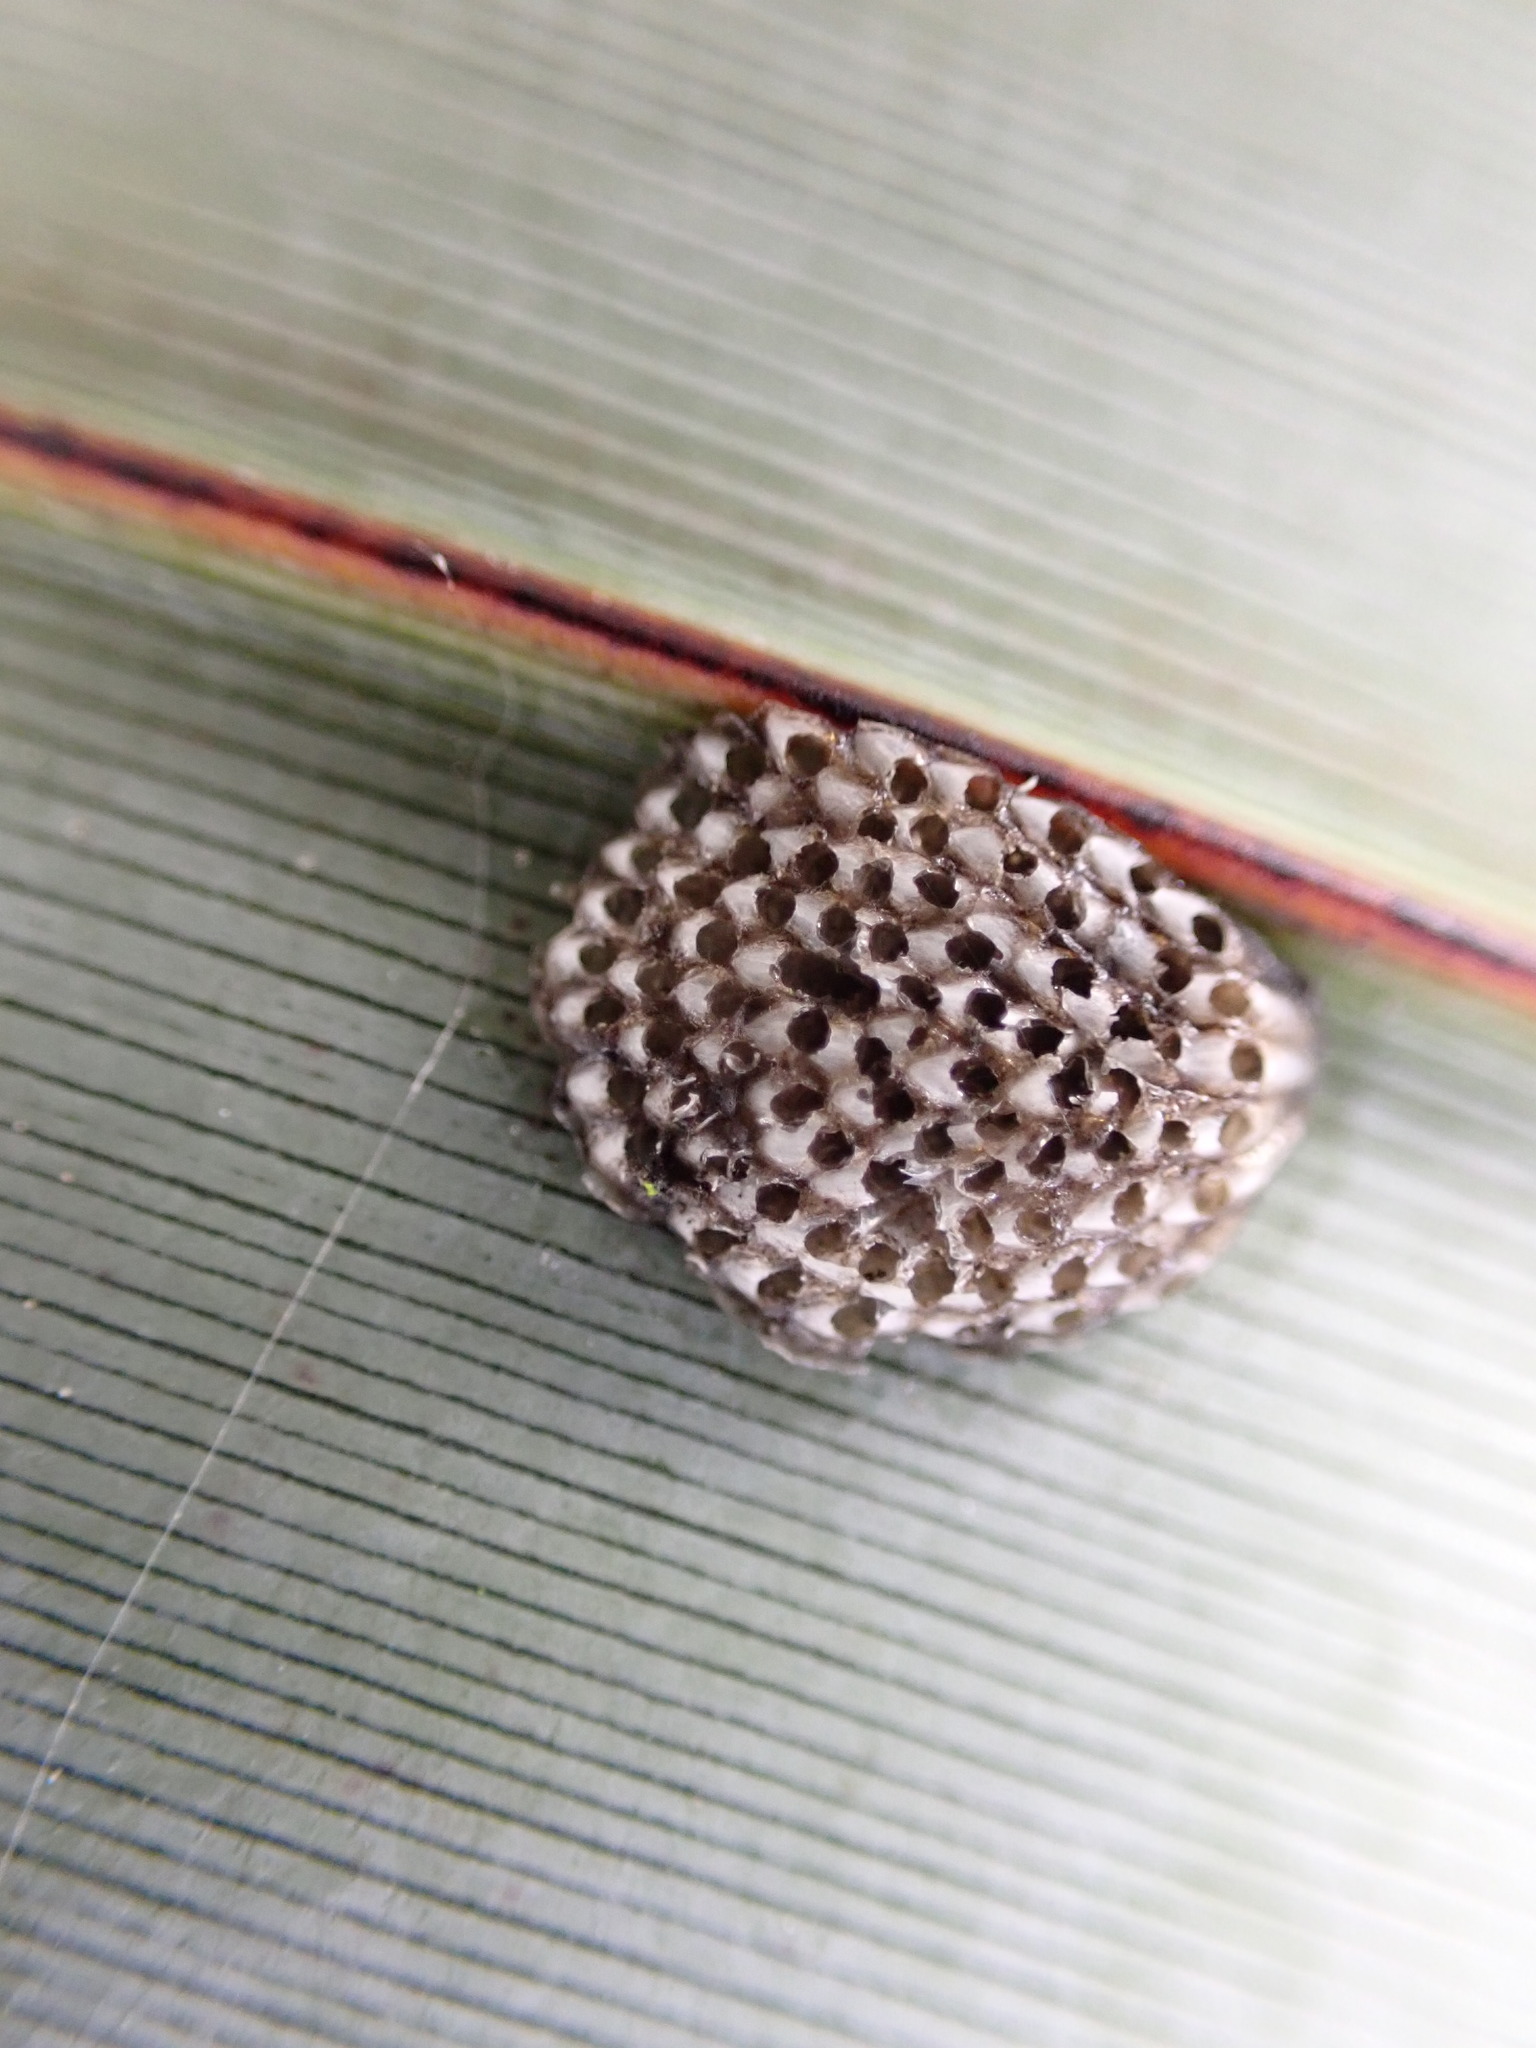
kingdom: Animalia
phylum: Arthropoda
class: Insecta
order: Hemiptera
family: Flatidae
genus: Siphanta
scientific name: Siphanta acuta
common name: Torpedo bug
